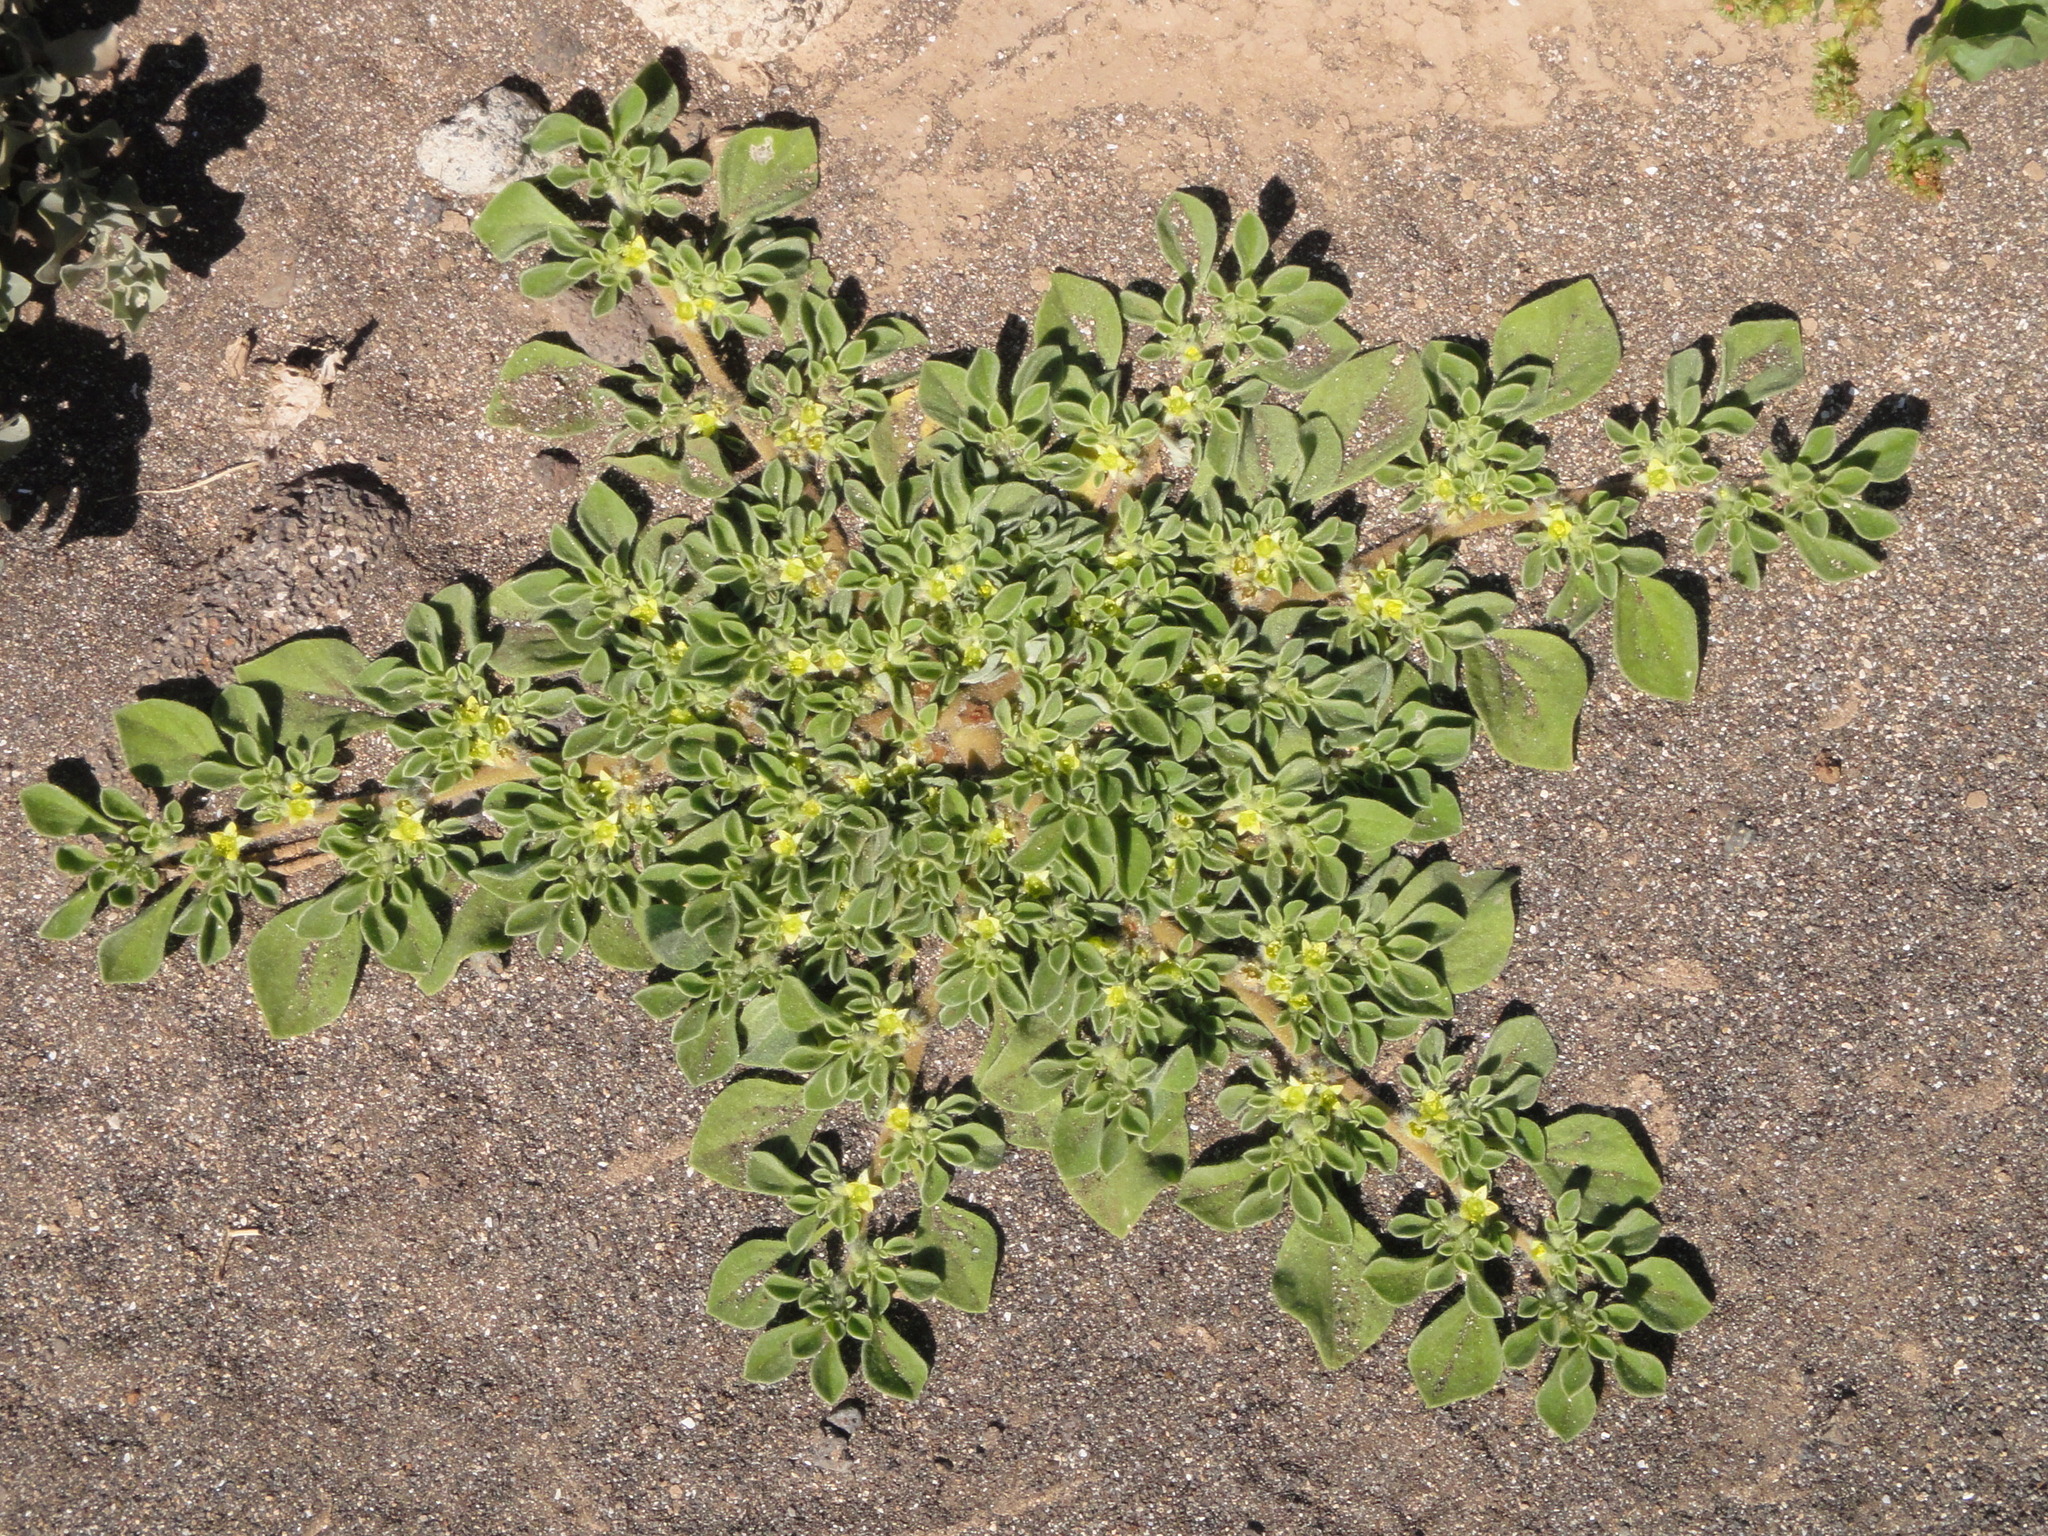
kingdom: Plantae
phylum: Tracheophyta
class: Magnoliopsida
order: Caryophyllales
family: Aizoaceae
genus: Aizoon
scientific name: Aizoon canariense
